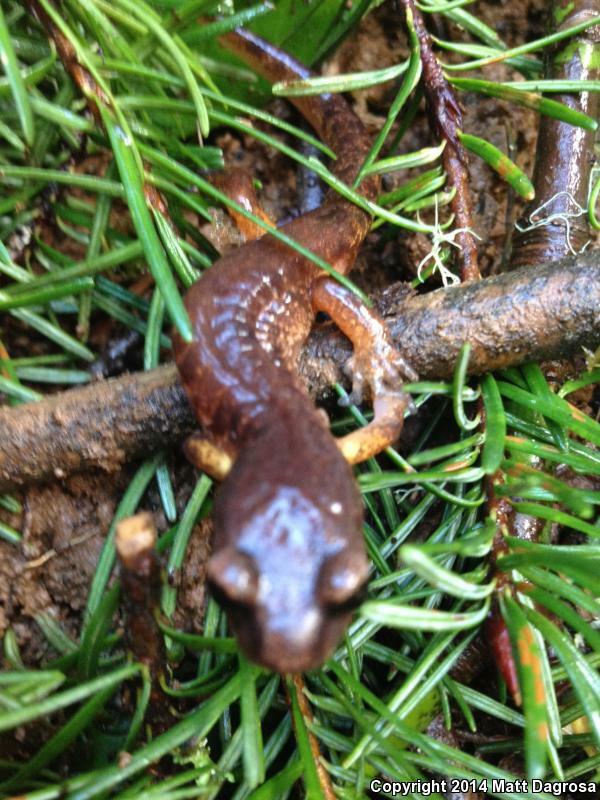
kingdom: Animalia
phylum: Chordata
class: Amphibia
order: Caudata
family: Plethodontidae
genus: Ensatina
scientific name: Ensatina eschscholtzii
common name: Ensatina
